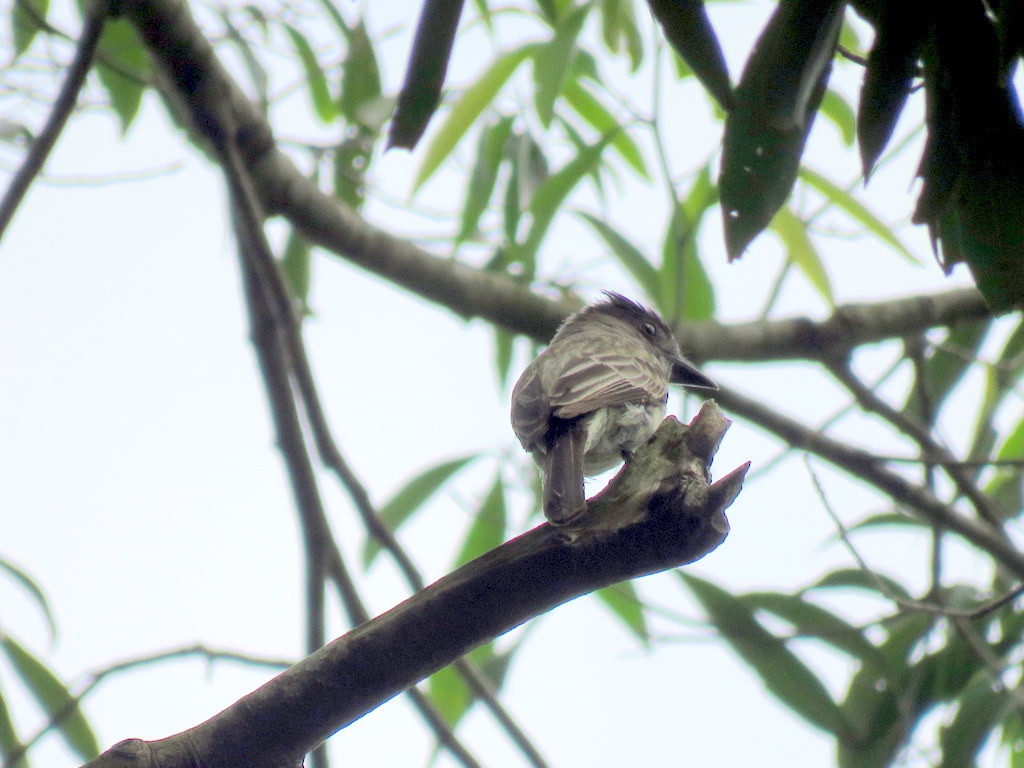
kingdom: Animalia
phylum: Chordata
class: Aves
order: Passeriformes
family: Tyrannidae
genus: Sirystes
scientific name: Sirystes sibilator
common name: Sirystes
